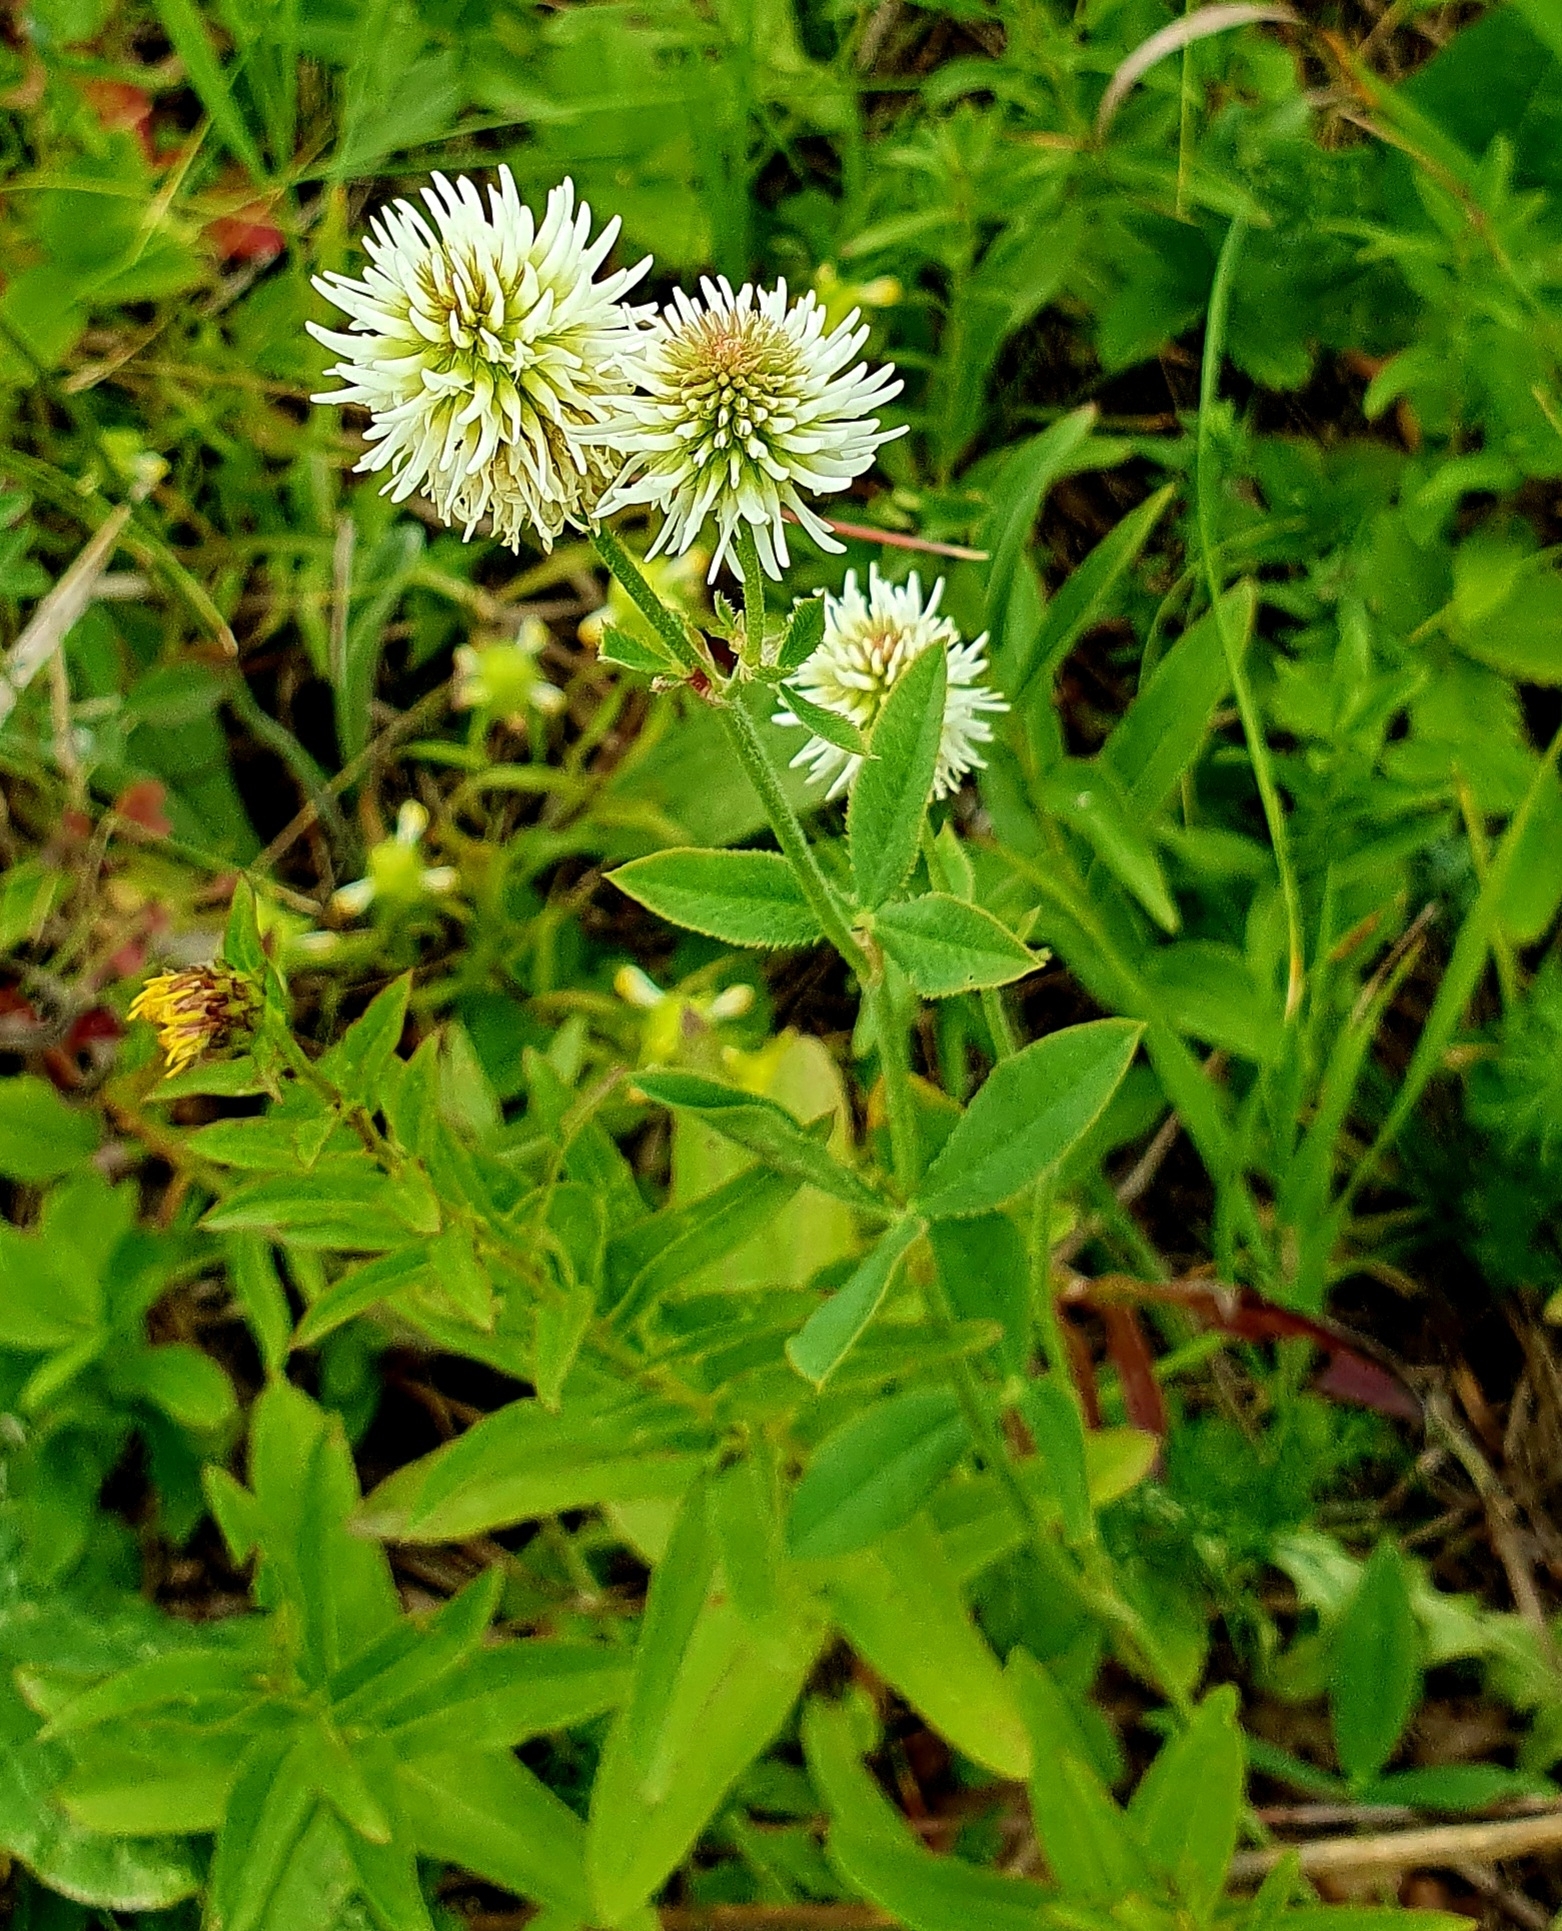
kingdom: Plantae
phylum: Tracheophyta
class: Magnoliopsida
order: Fabales
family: Fabaceae
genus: Trifolium
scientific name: Trifolium montanum
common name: Mountain clover
